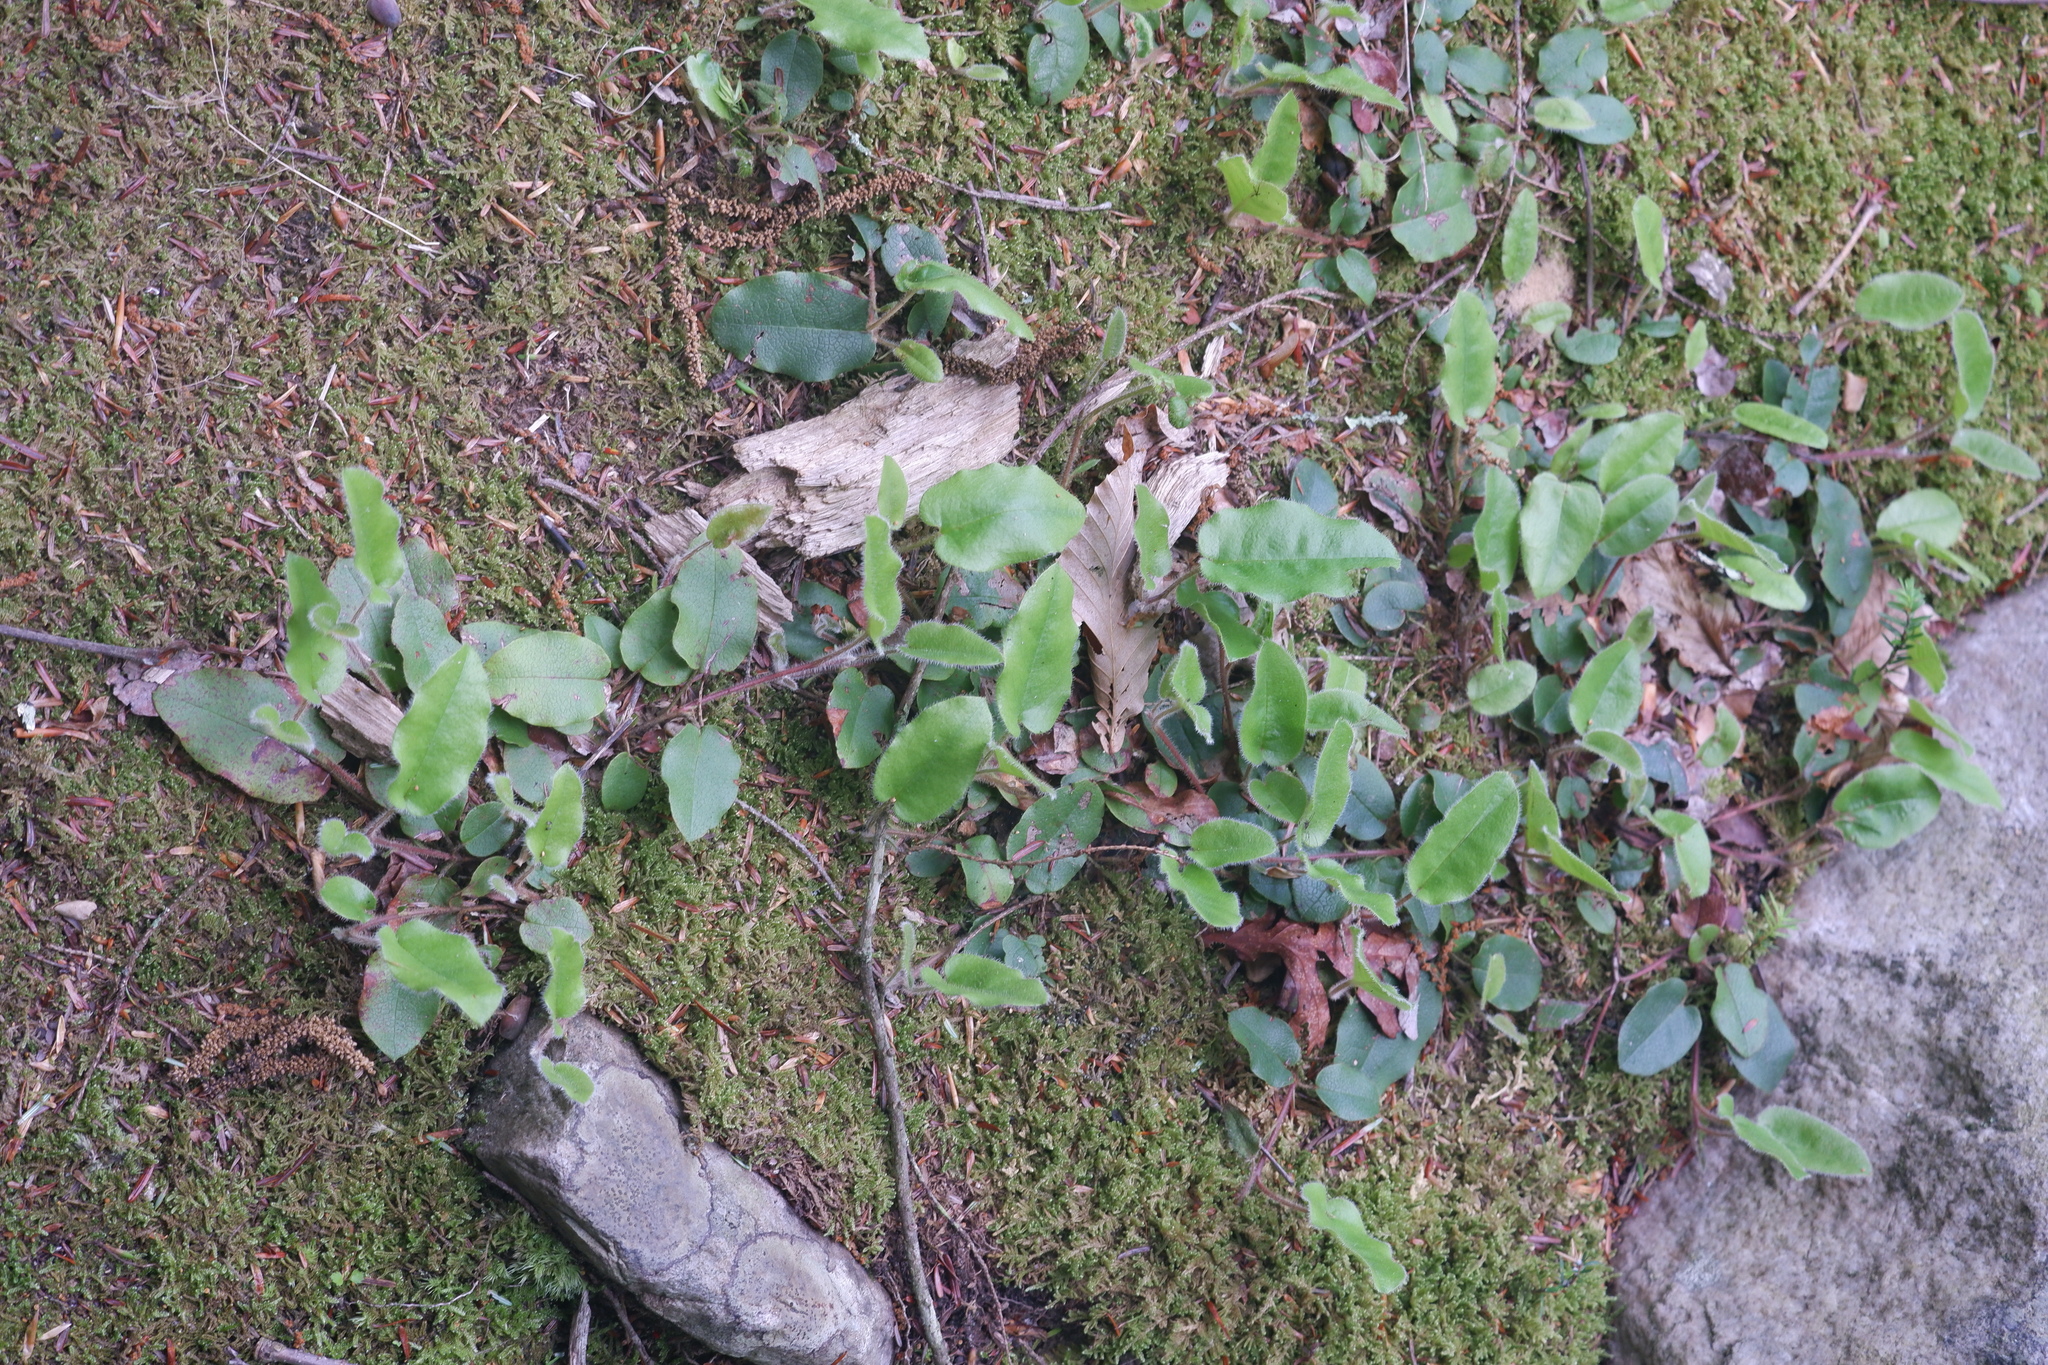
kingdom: Plantae
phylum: Tracheophyta
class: Magnoliopsida
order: Ericales
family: Ericaceae
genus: Epigaea
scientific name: Epigaea repens
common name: Gravelroot
